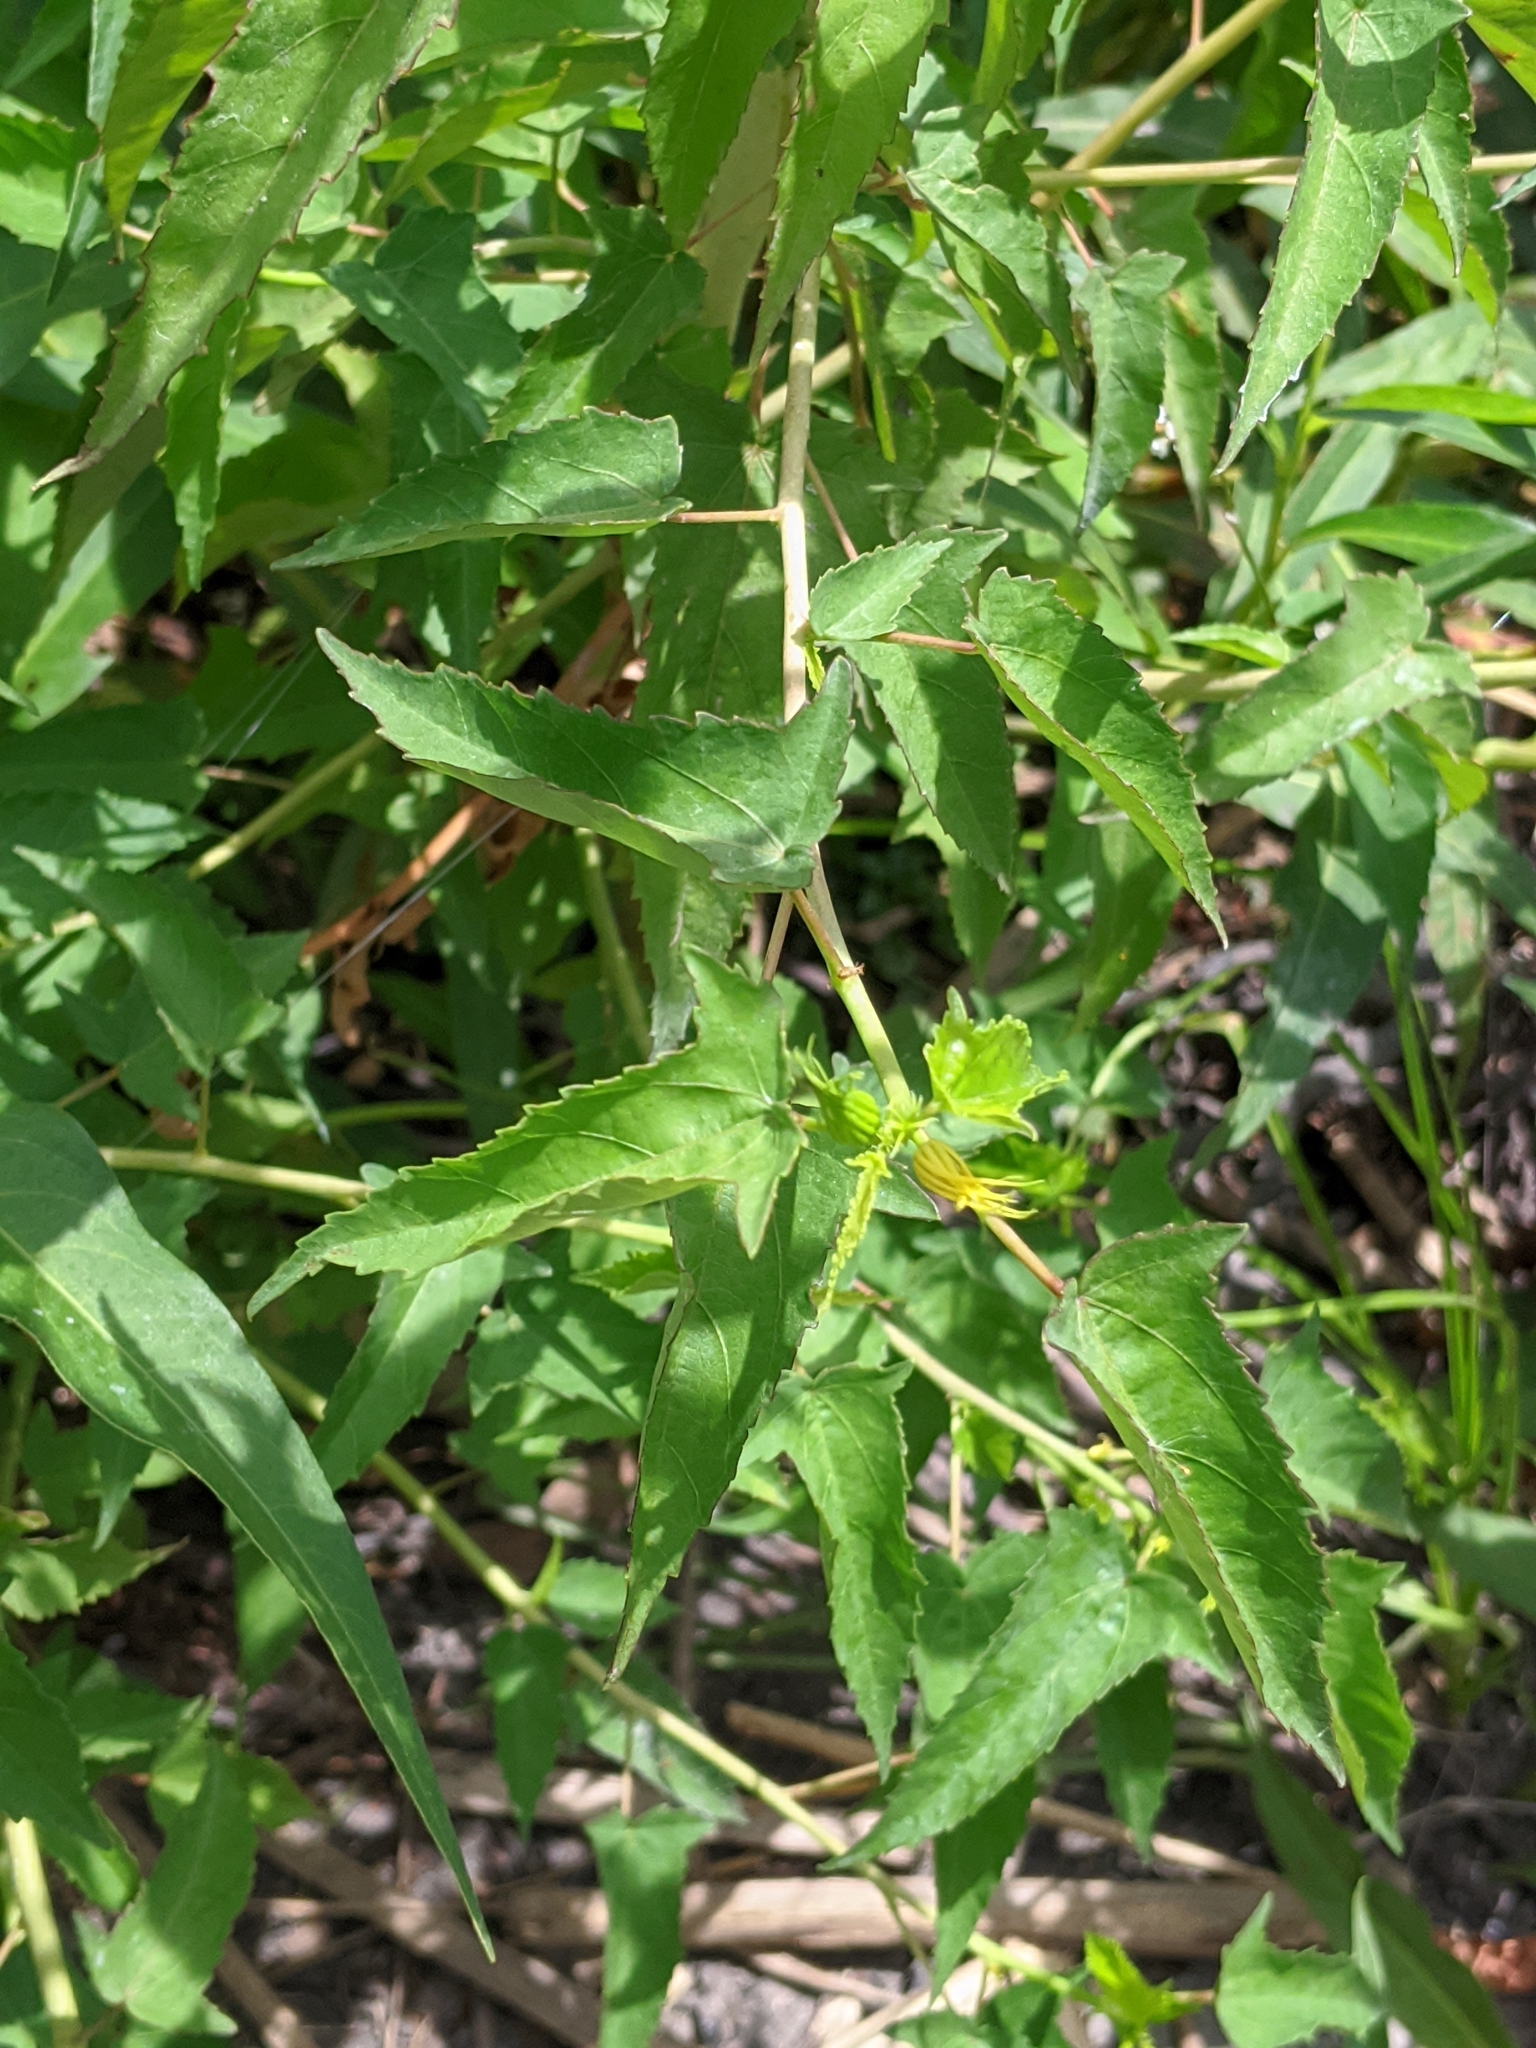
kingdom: Plantae
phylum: Tracheophyta
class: Magnoliopsida
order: Malvales
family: Malvaceae
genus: Hibiscus
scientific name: Hibiscus laevis
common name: Scarlet rose-mallow
